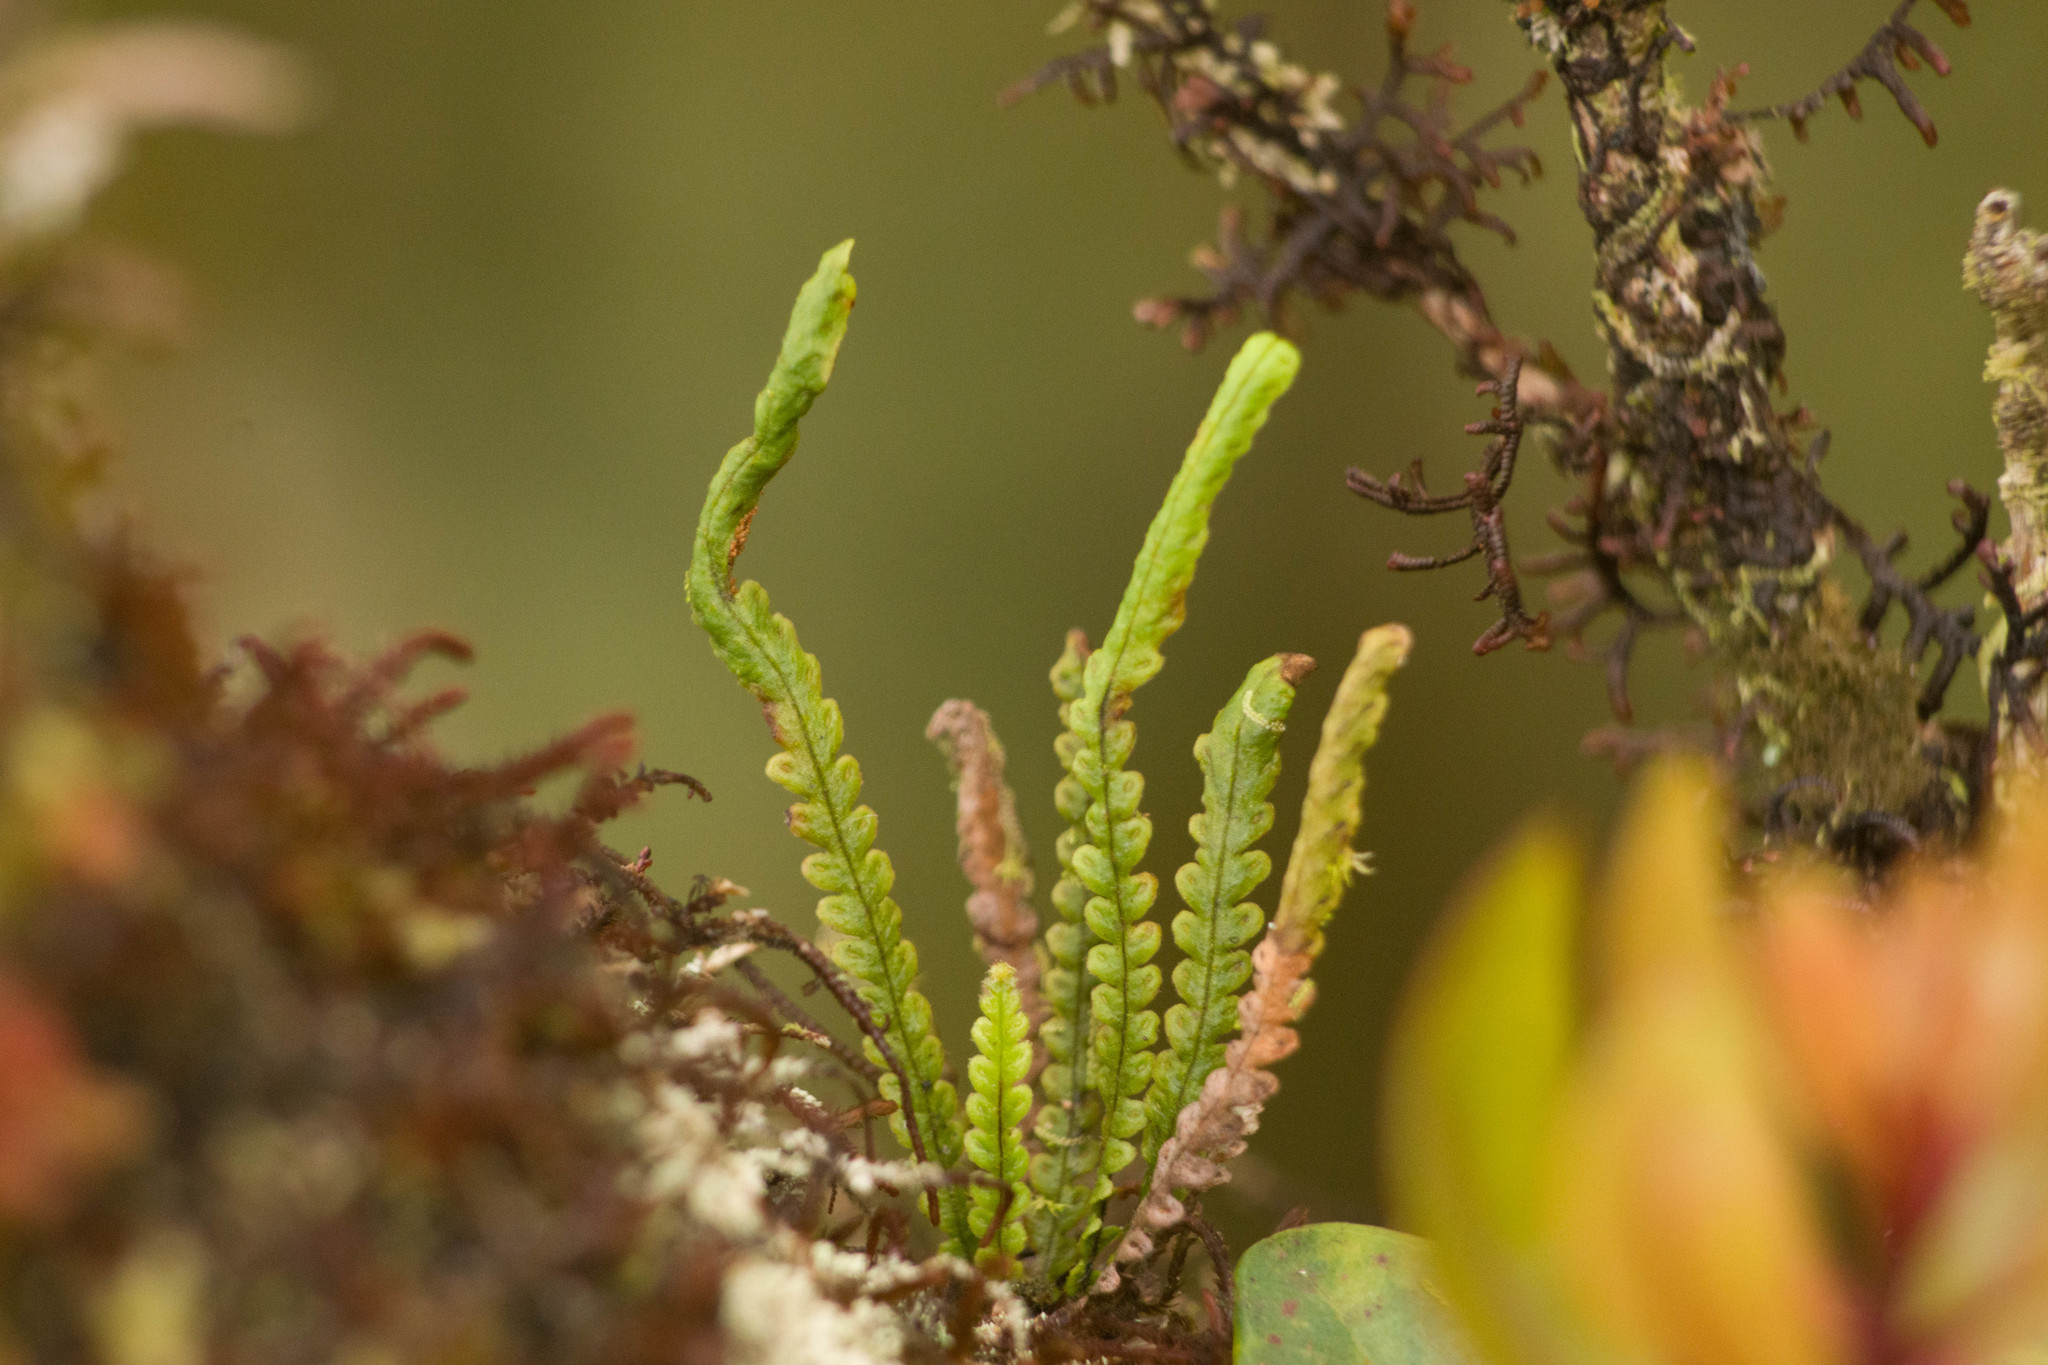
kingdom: Plantae
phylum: Tracheophyta
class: Polypodiopsida
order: Polypodiales
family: Polypodiaceae
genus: Stenogrammitis
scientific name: Stenogrammitis saffordii
